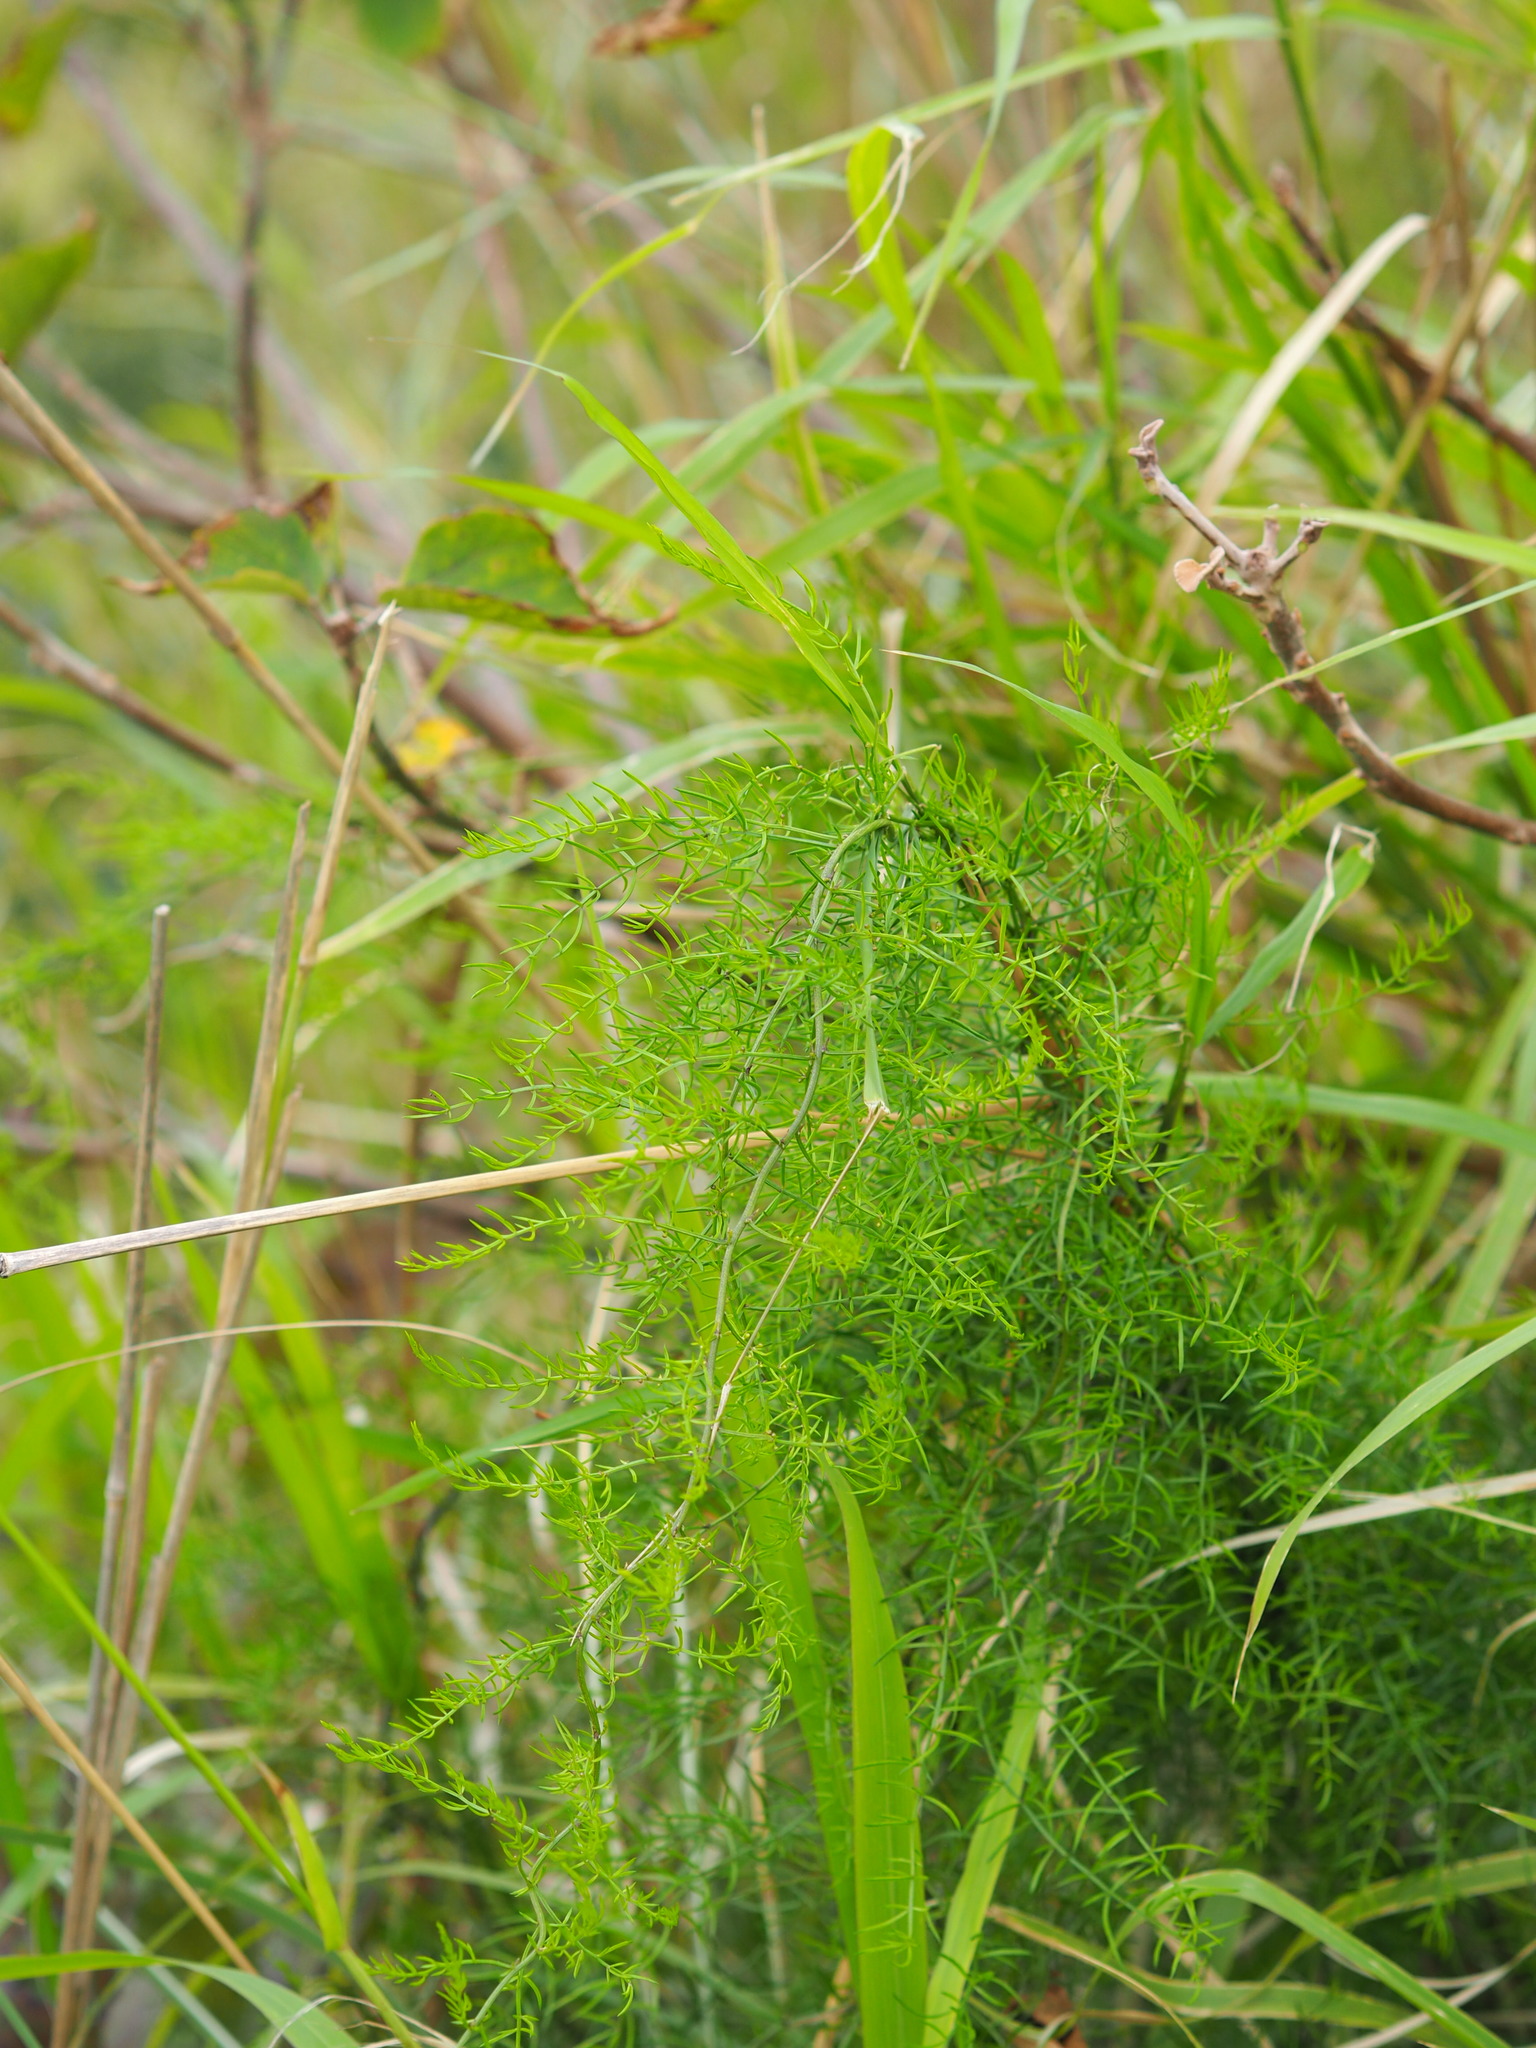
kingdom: Plantae
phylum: Tracheophyta
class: Liliopsida
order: Asparagales
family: Asparagaceae
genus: Asparagus
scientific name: Asparagus cochinchinensis
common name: Chinese asparagus
